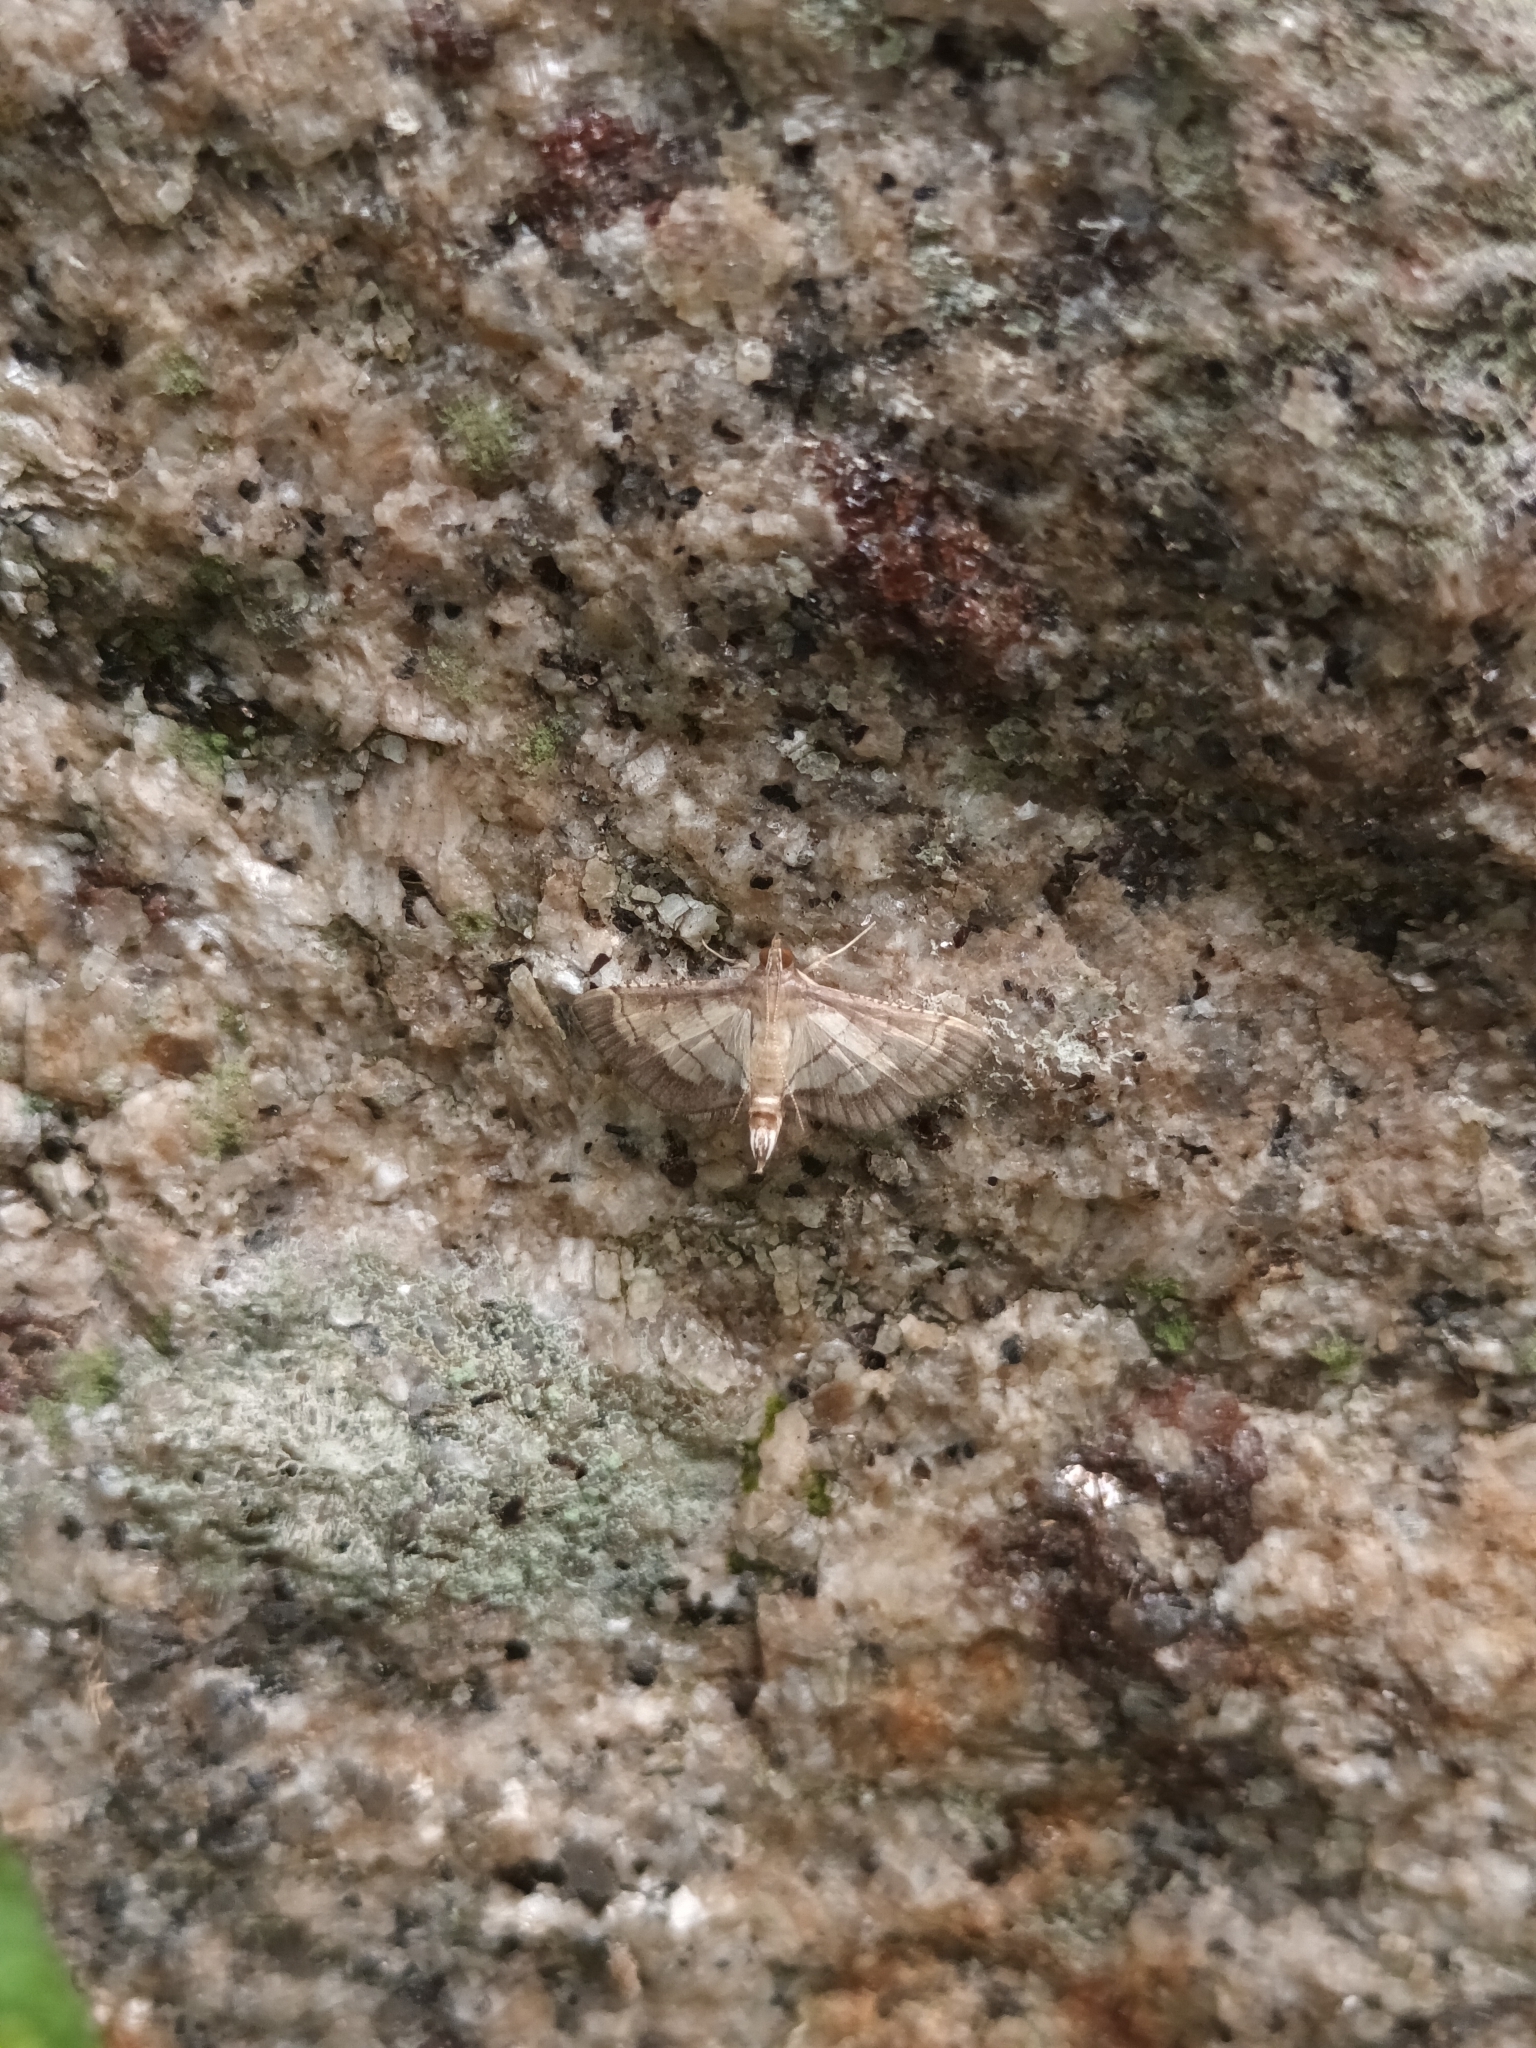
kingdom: Animalia
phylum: Arthropoda
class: Insecta
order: Lepidoptera
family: Crambidae
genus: Cnaphalocrocis
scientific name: Cnaphalocrocis trebiusalis
